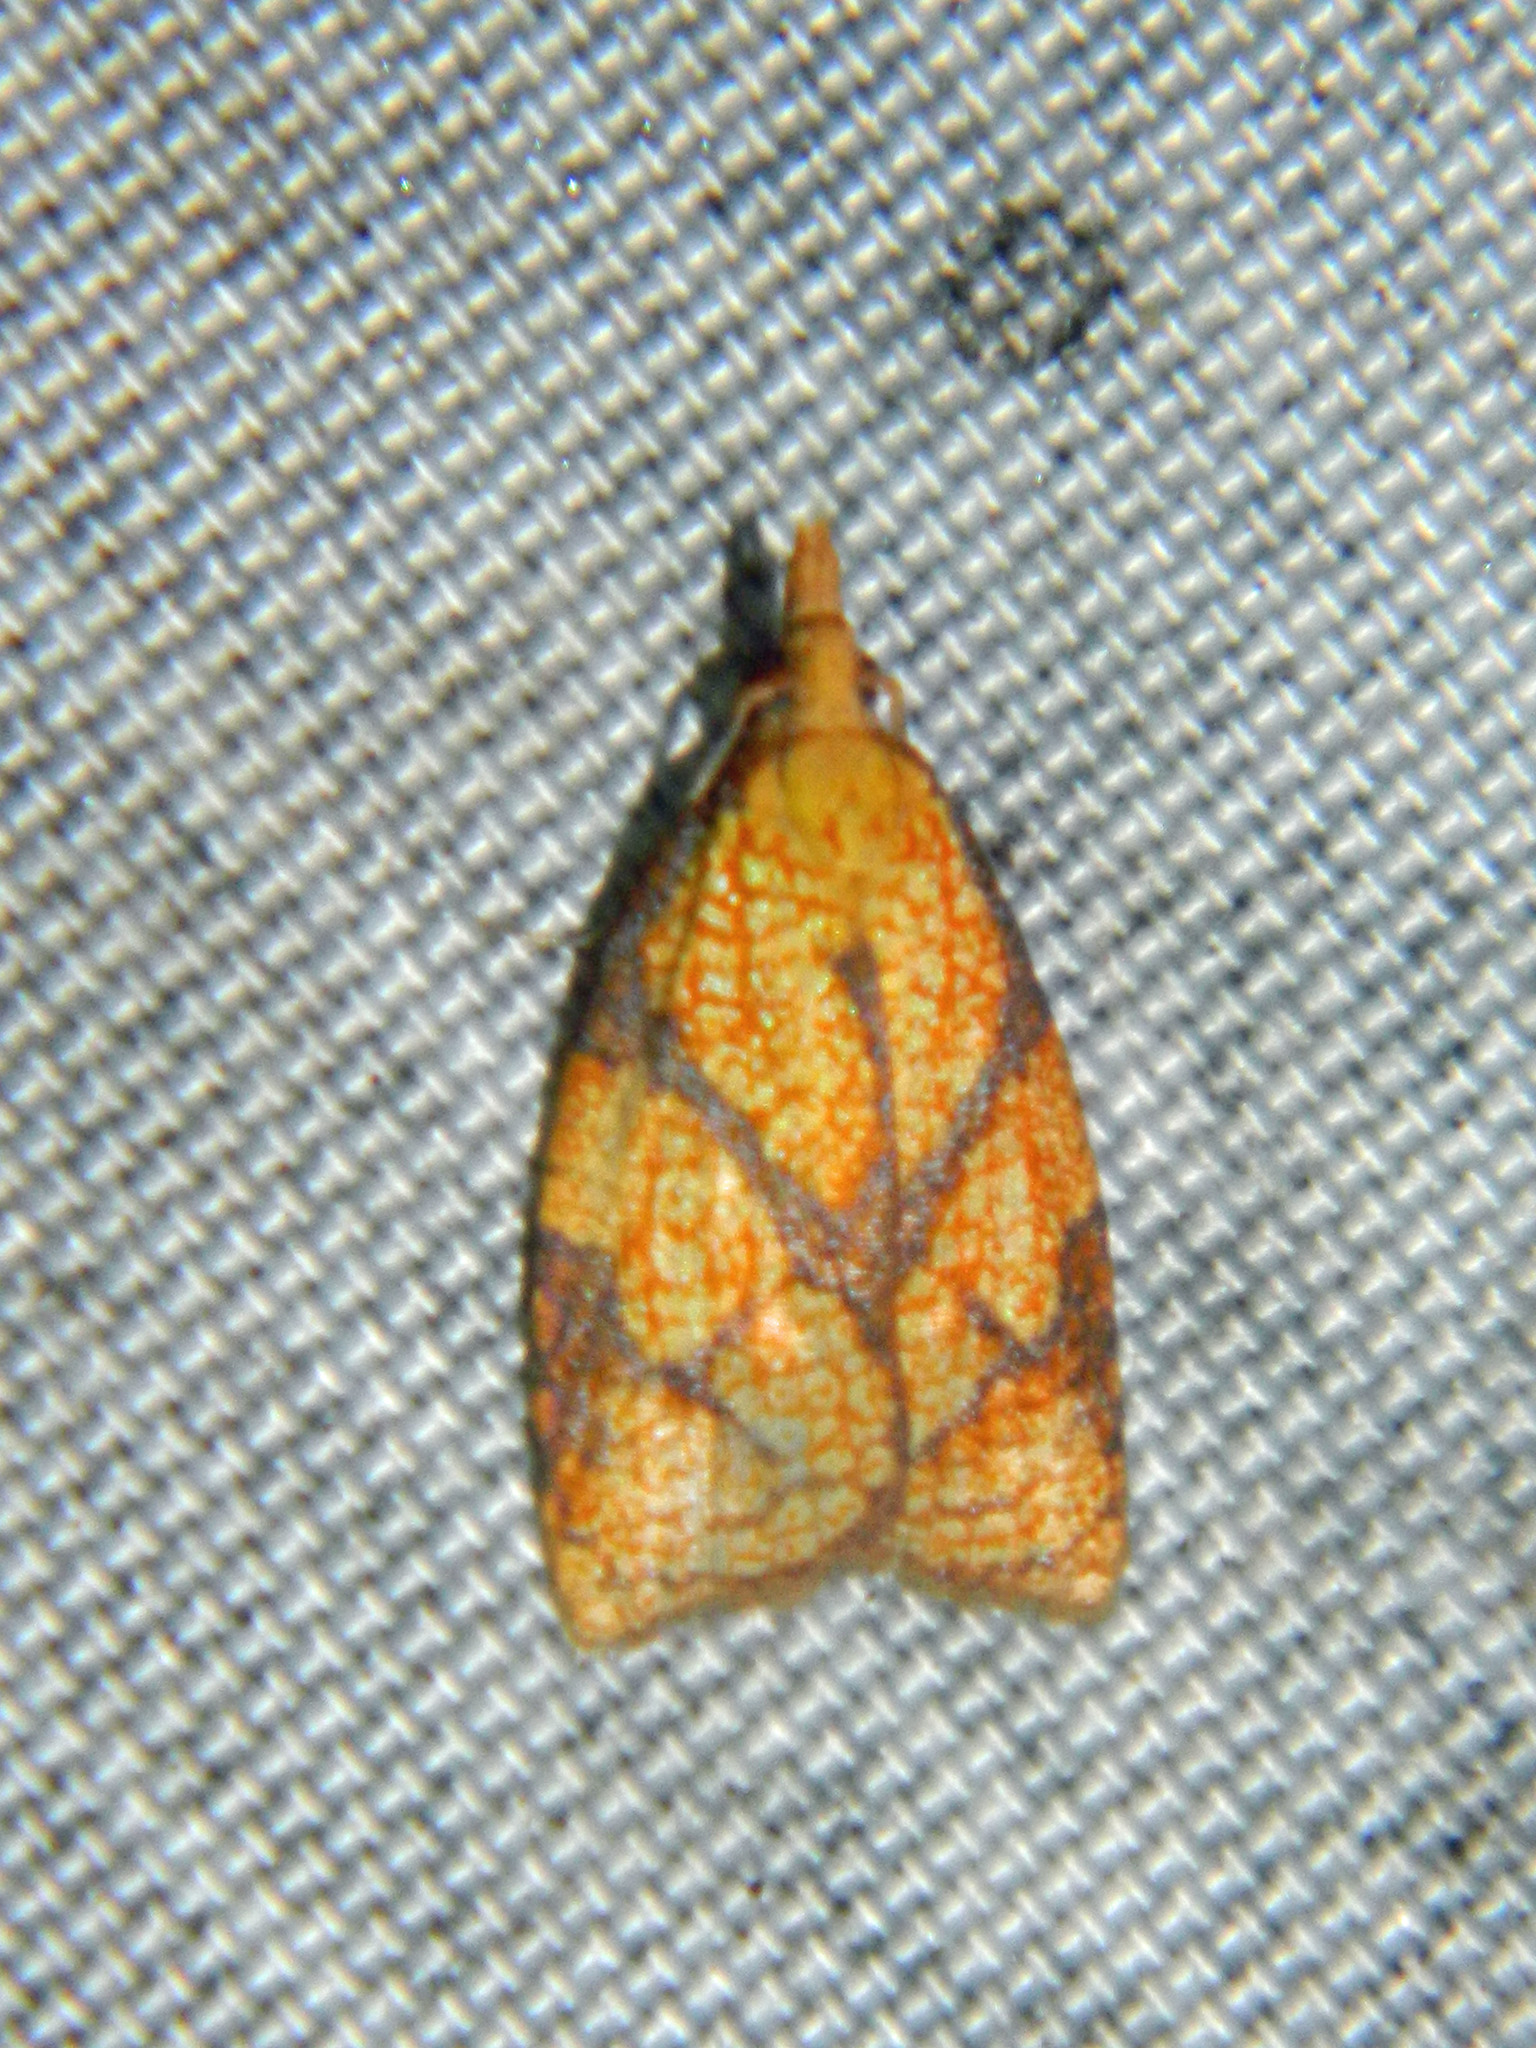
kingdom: Animalia
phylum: Arthropoda
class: Insecta
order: Lepidoptera
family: Tortricidae
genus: Cenopis
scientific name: Cenopis reticulatana
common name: Reticulated fruitworm moth
